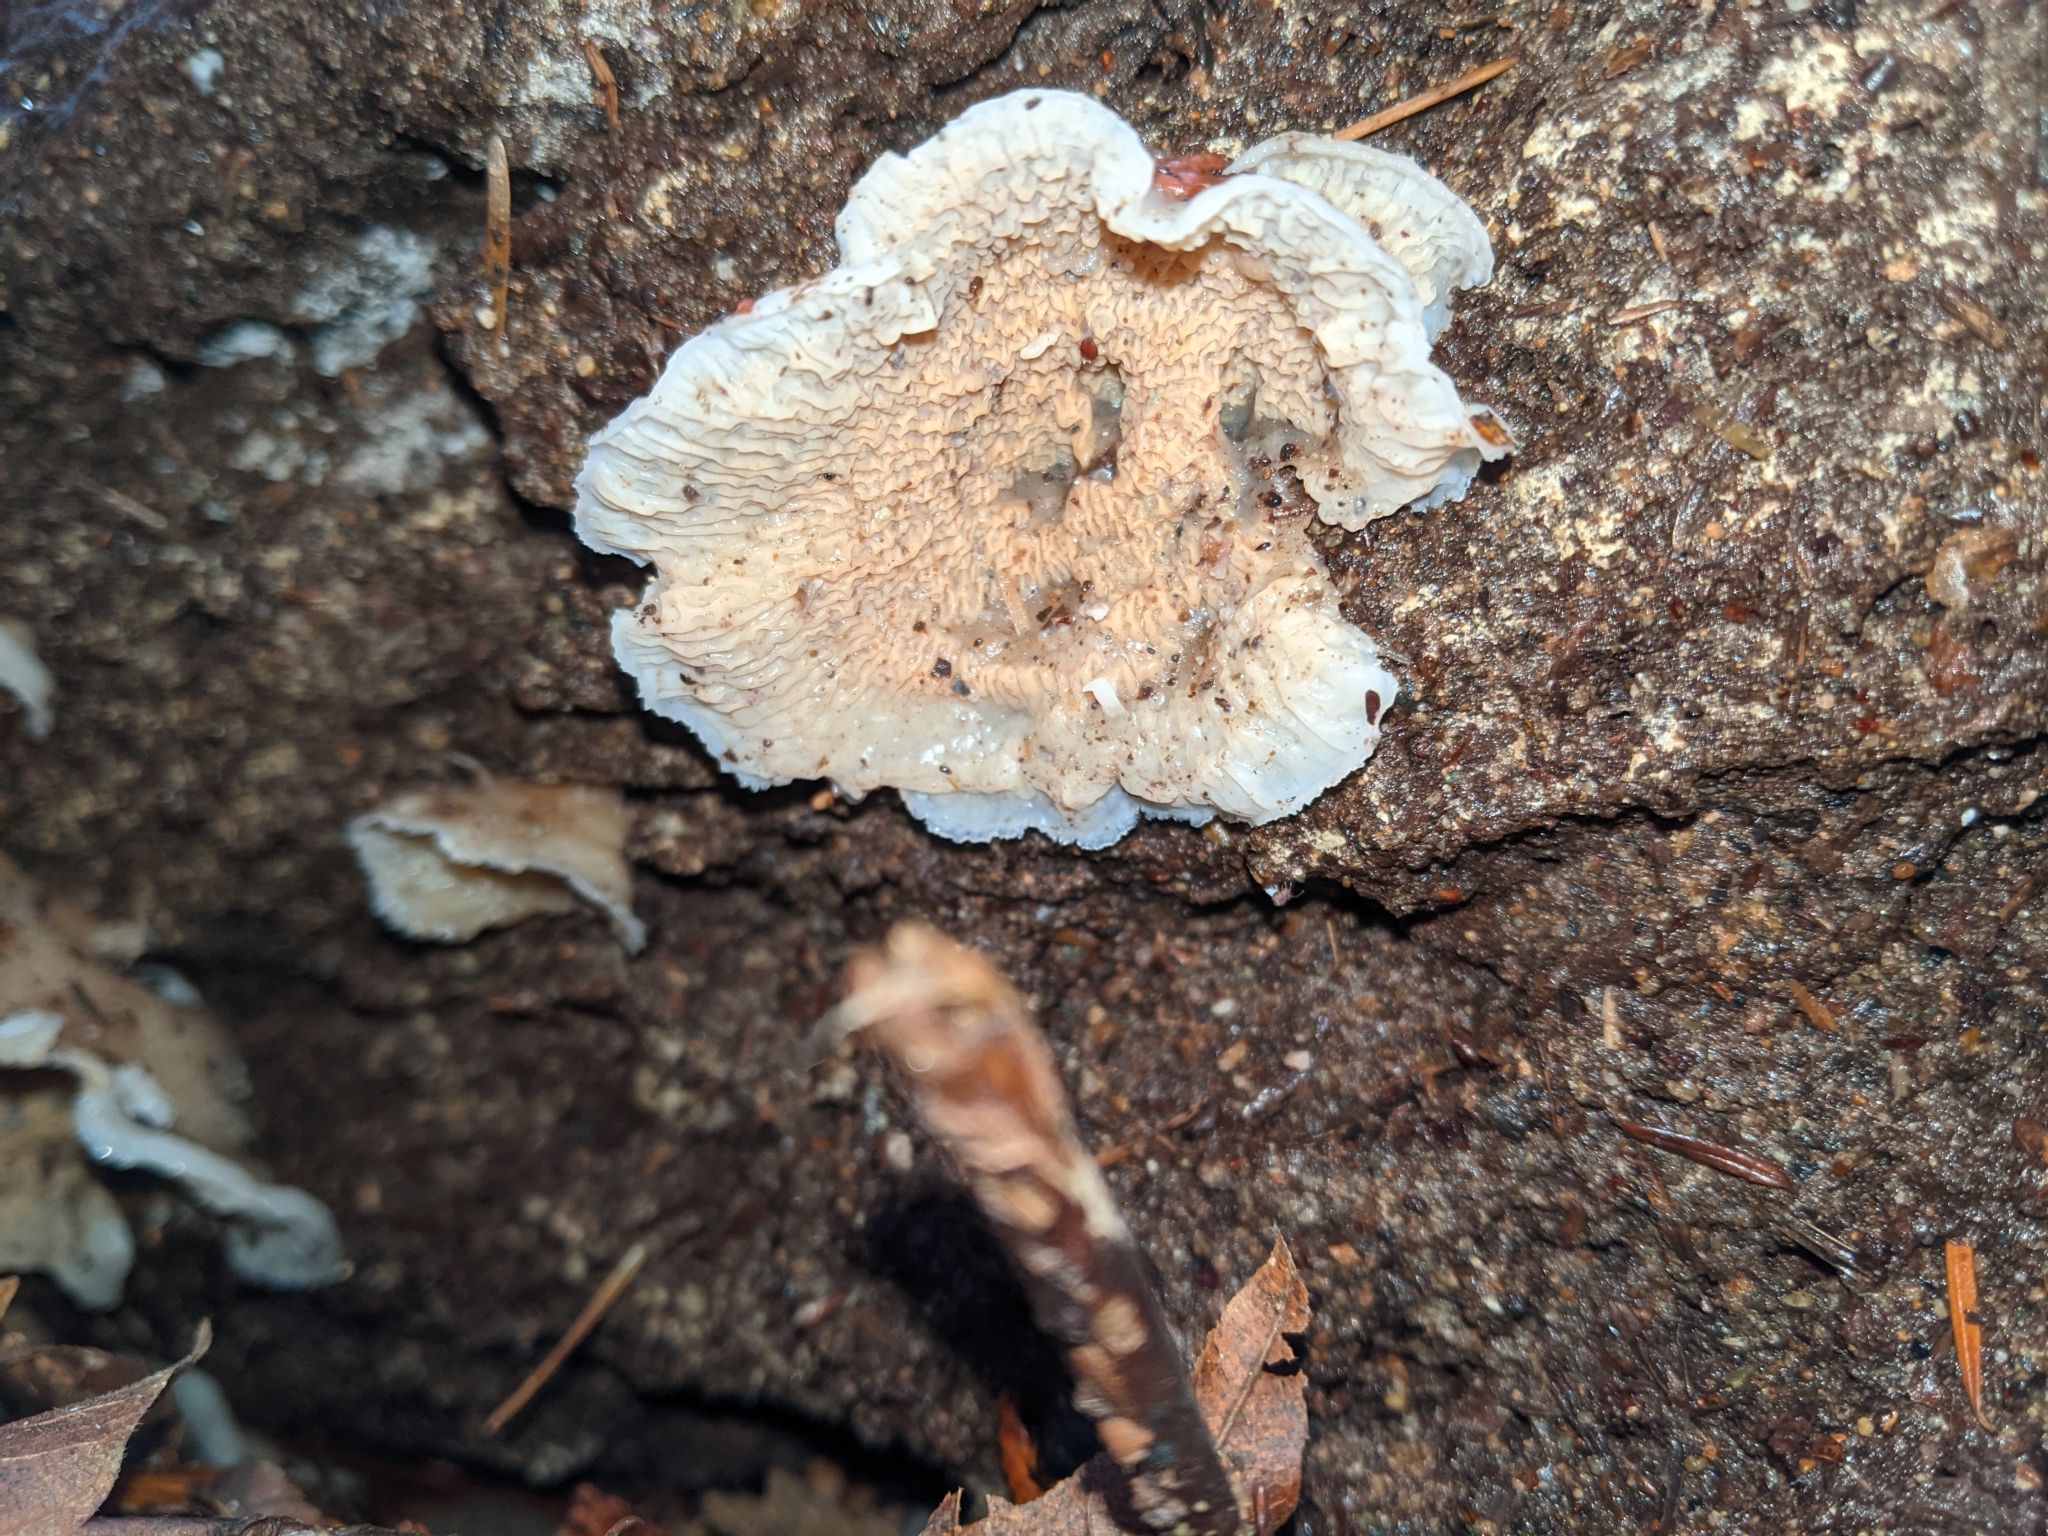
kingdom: Fungi
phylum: Basidiomycota
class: Agaricomycetes
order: Polyporales
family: Meruliaceae
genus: Phlebia
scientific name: Phlebia tremellosa
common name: Jelly rot
